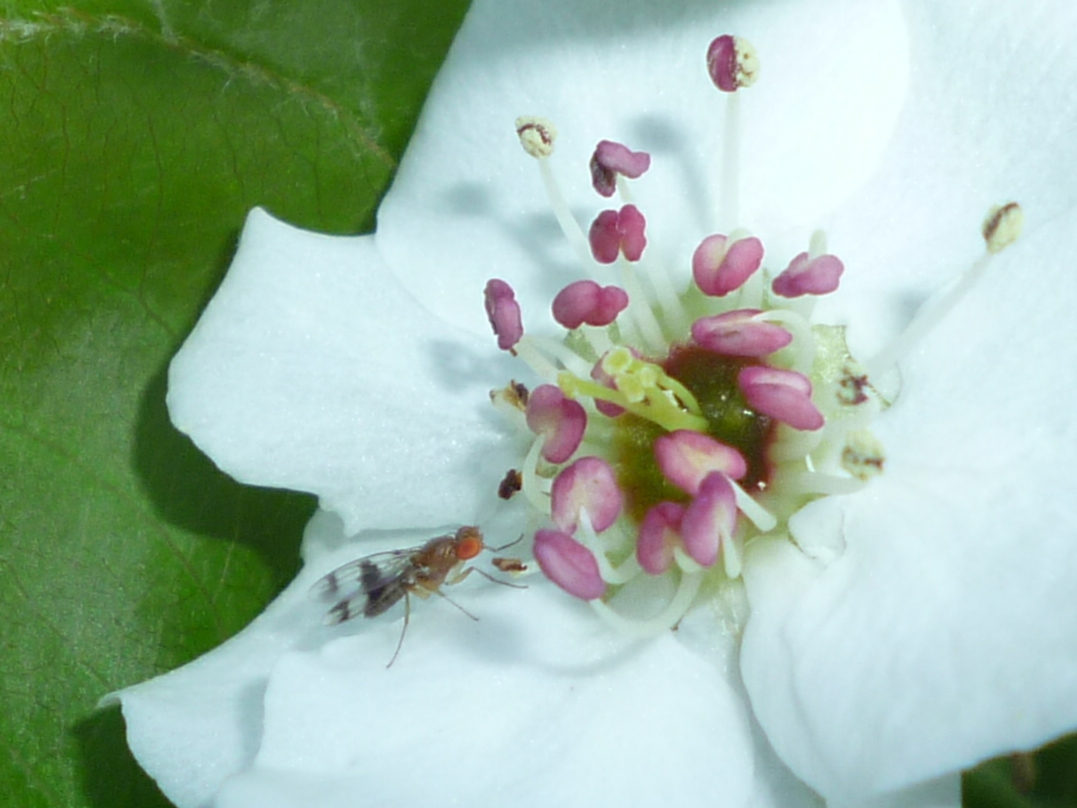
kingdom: Animalia
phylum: Arthropoda
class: Insecta
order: Diptera
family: Drosophilidae
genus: Chymomyza
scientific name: Chymomyza amoena
